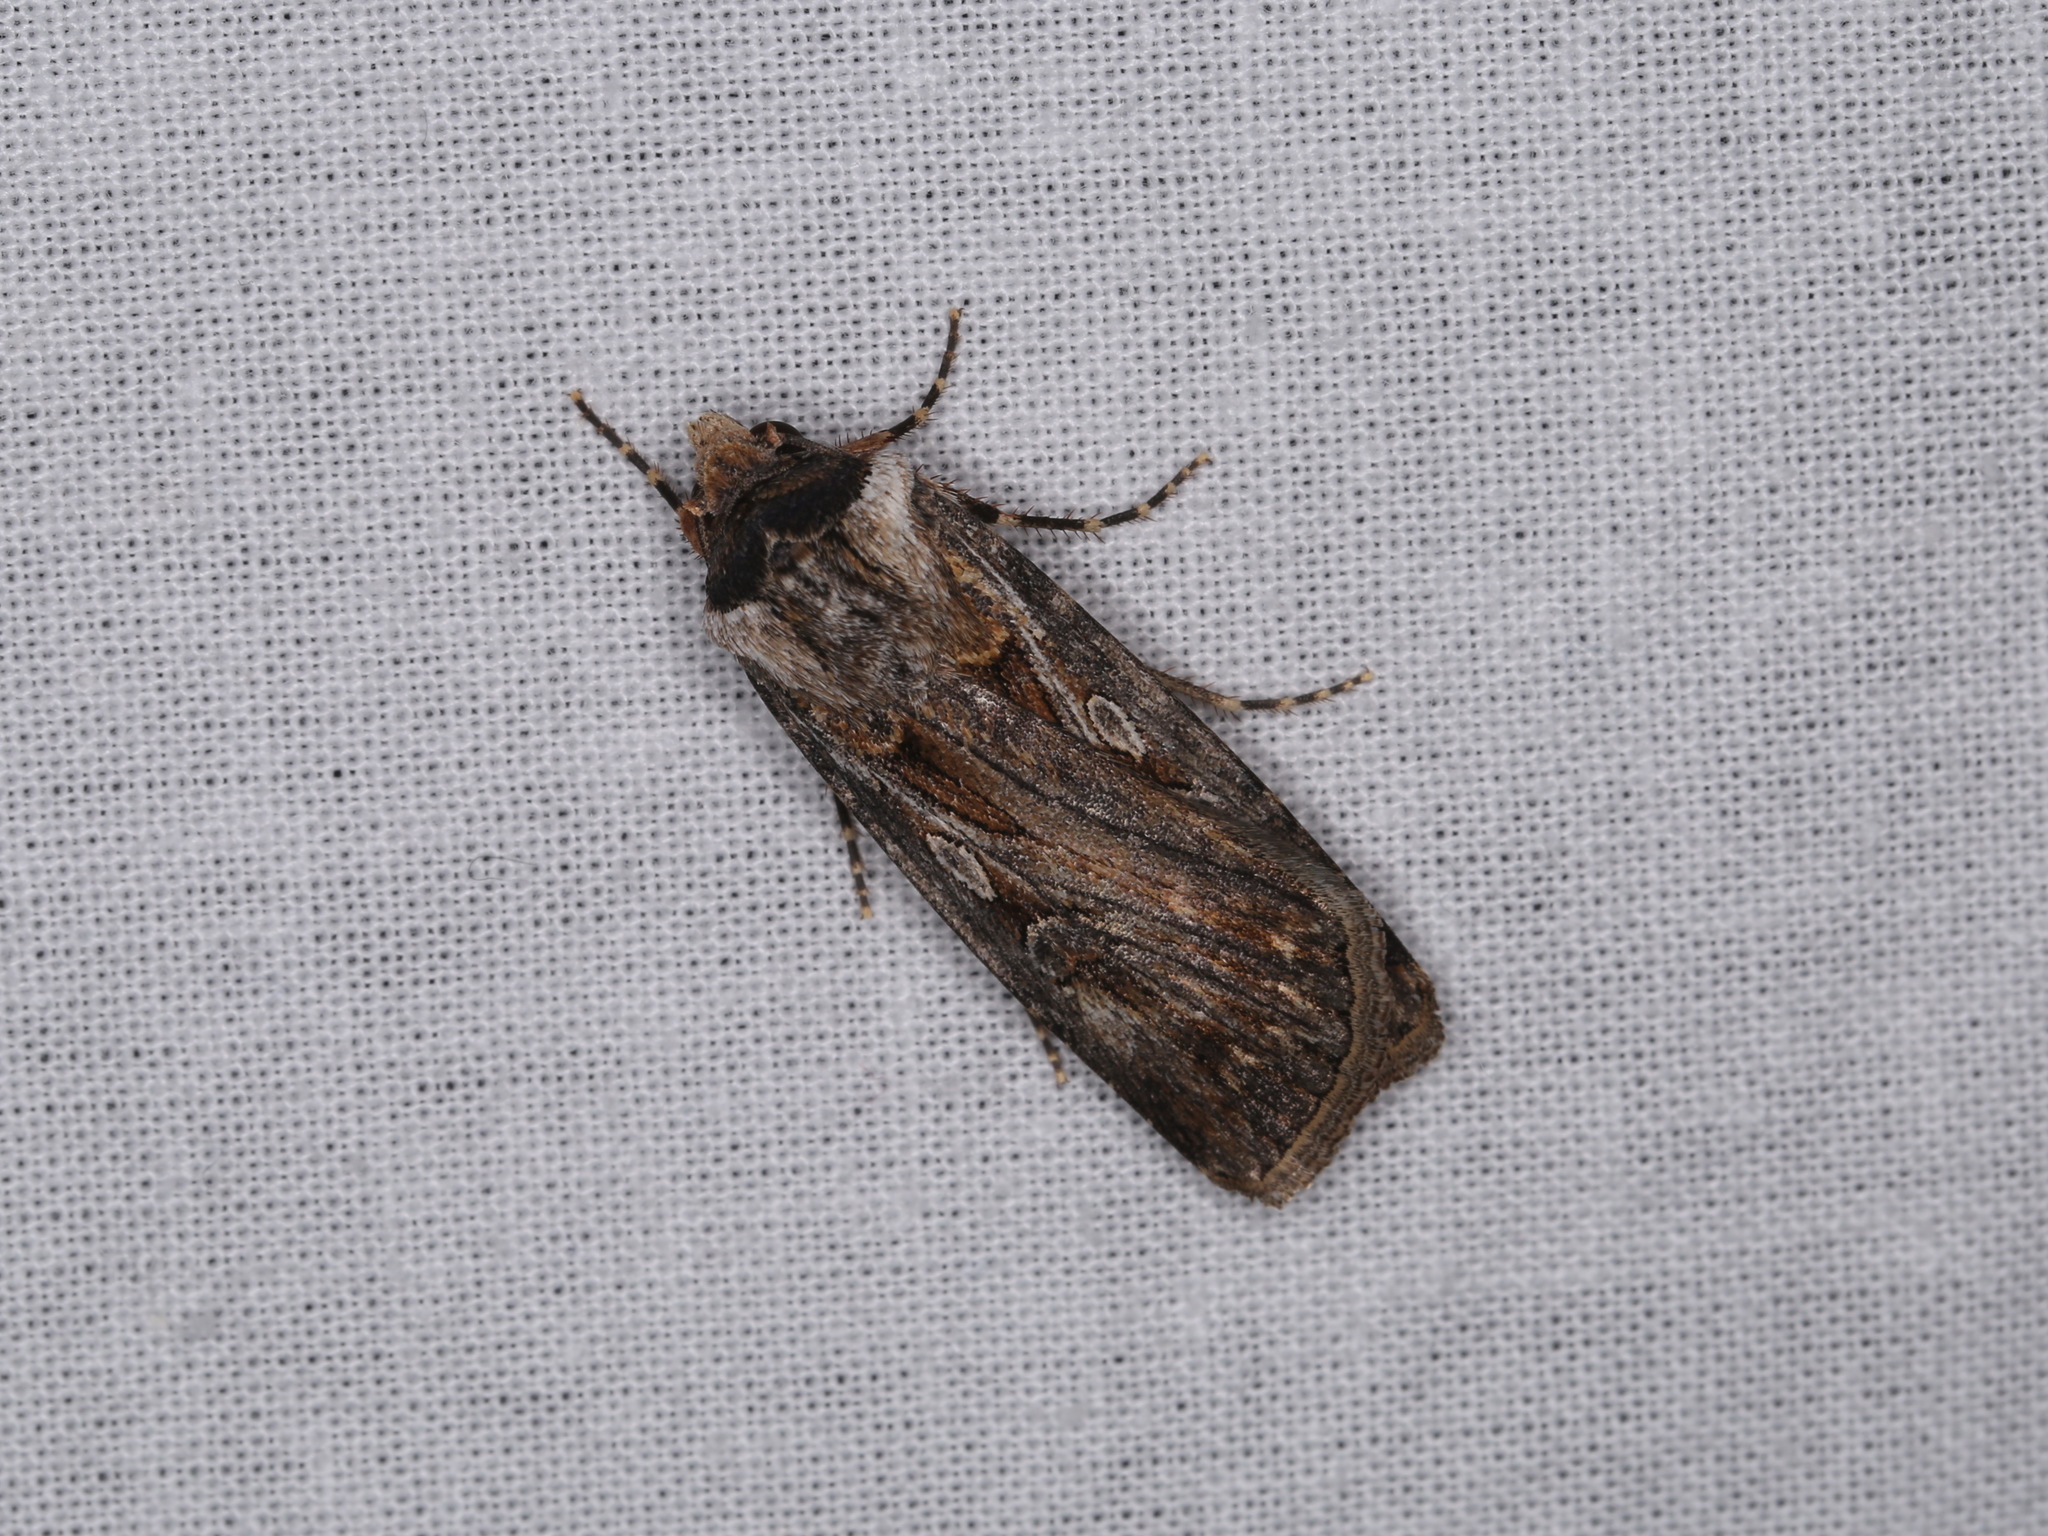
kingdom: Animalia
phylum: Arthropoda
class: Insecta
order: Lepidoptera
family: Noctuidae
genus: Agrotis
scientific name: Agrotis munda
